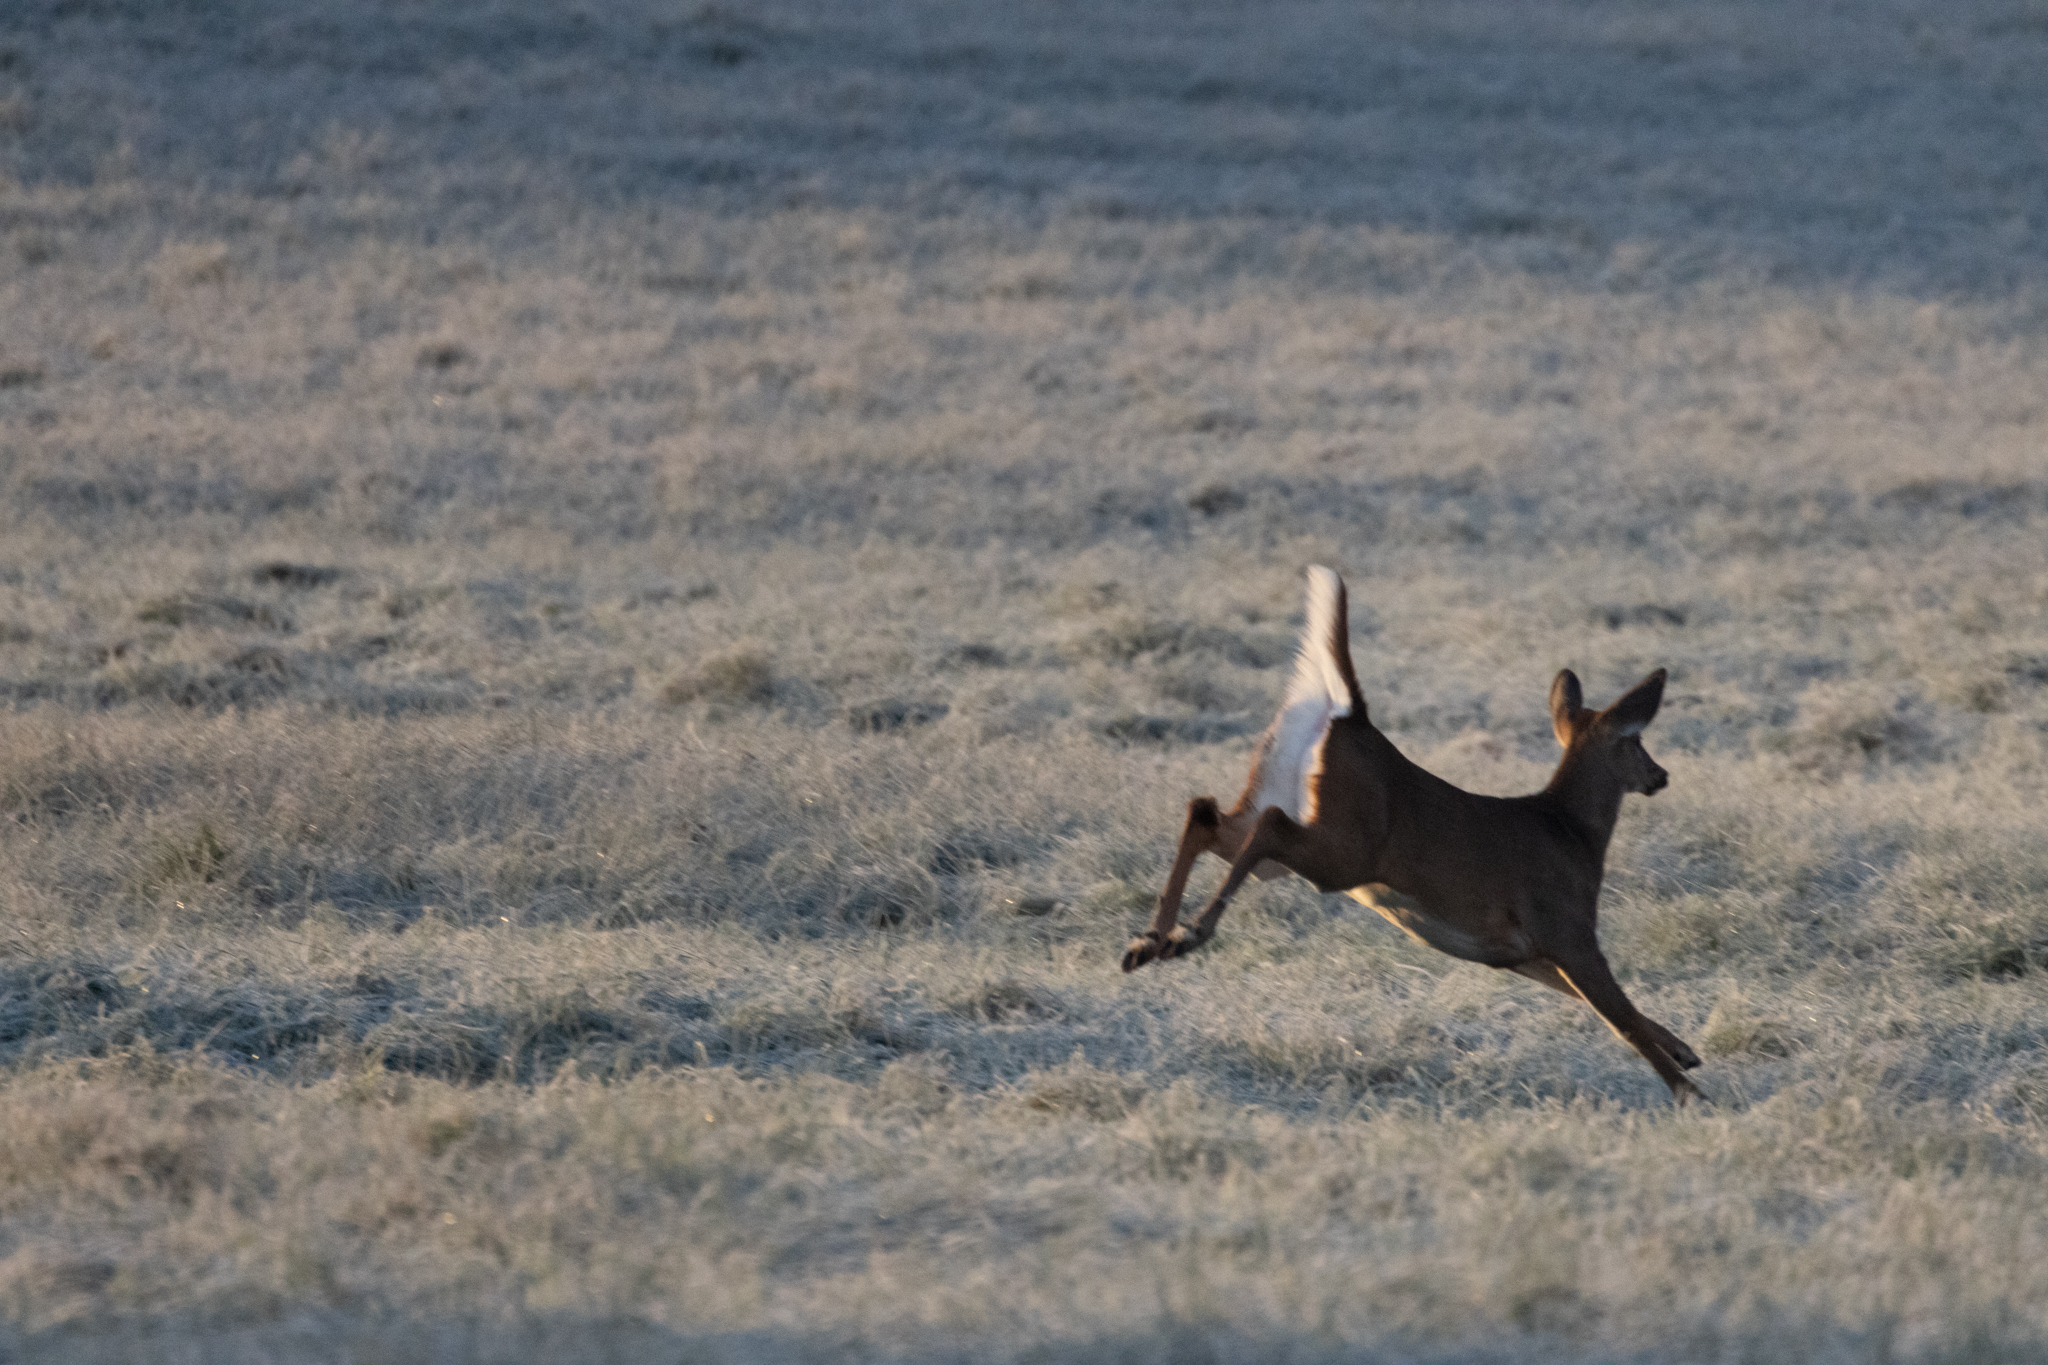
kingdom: Animalia
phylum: Chordata
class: Mammalia
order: Artiodactyla
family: Cervidae
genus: Odocoileus
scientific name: Odocoileus virginianus
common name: White-tailed deer
